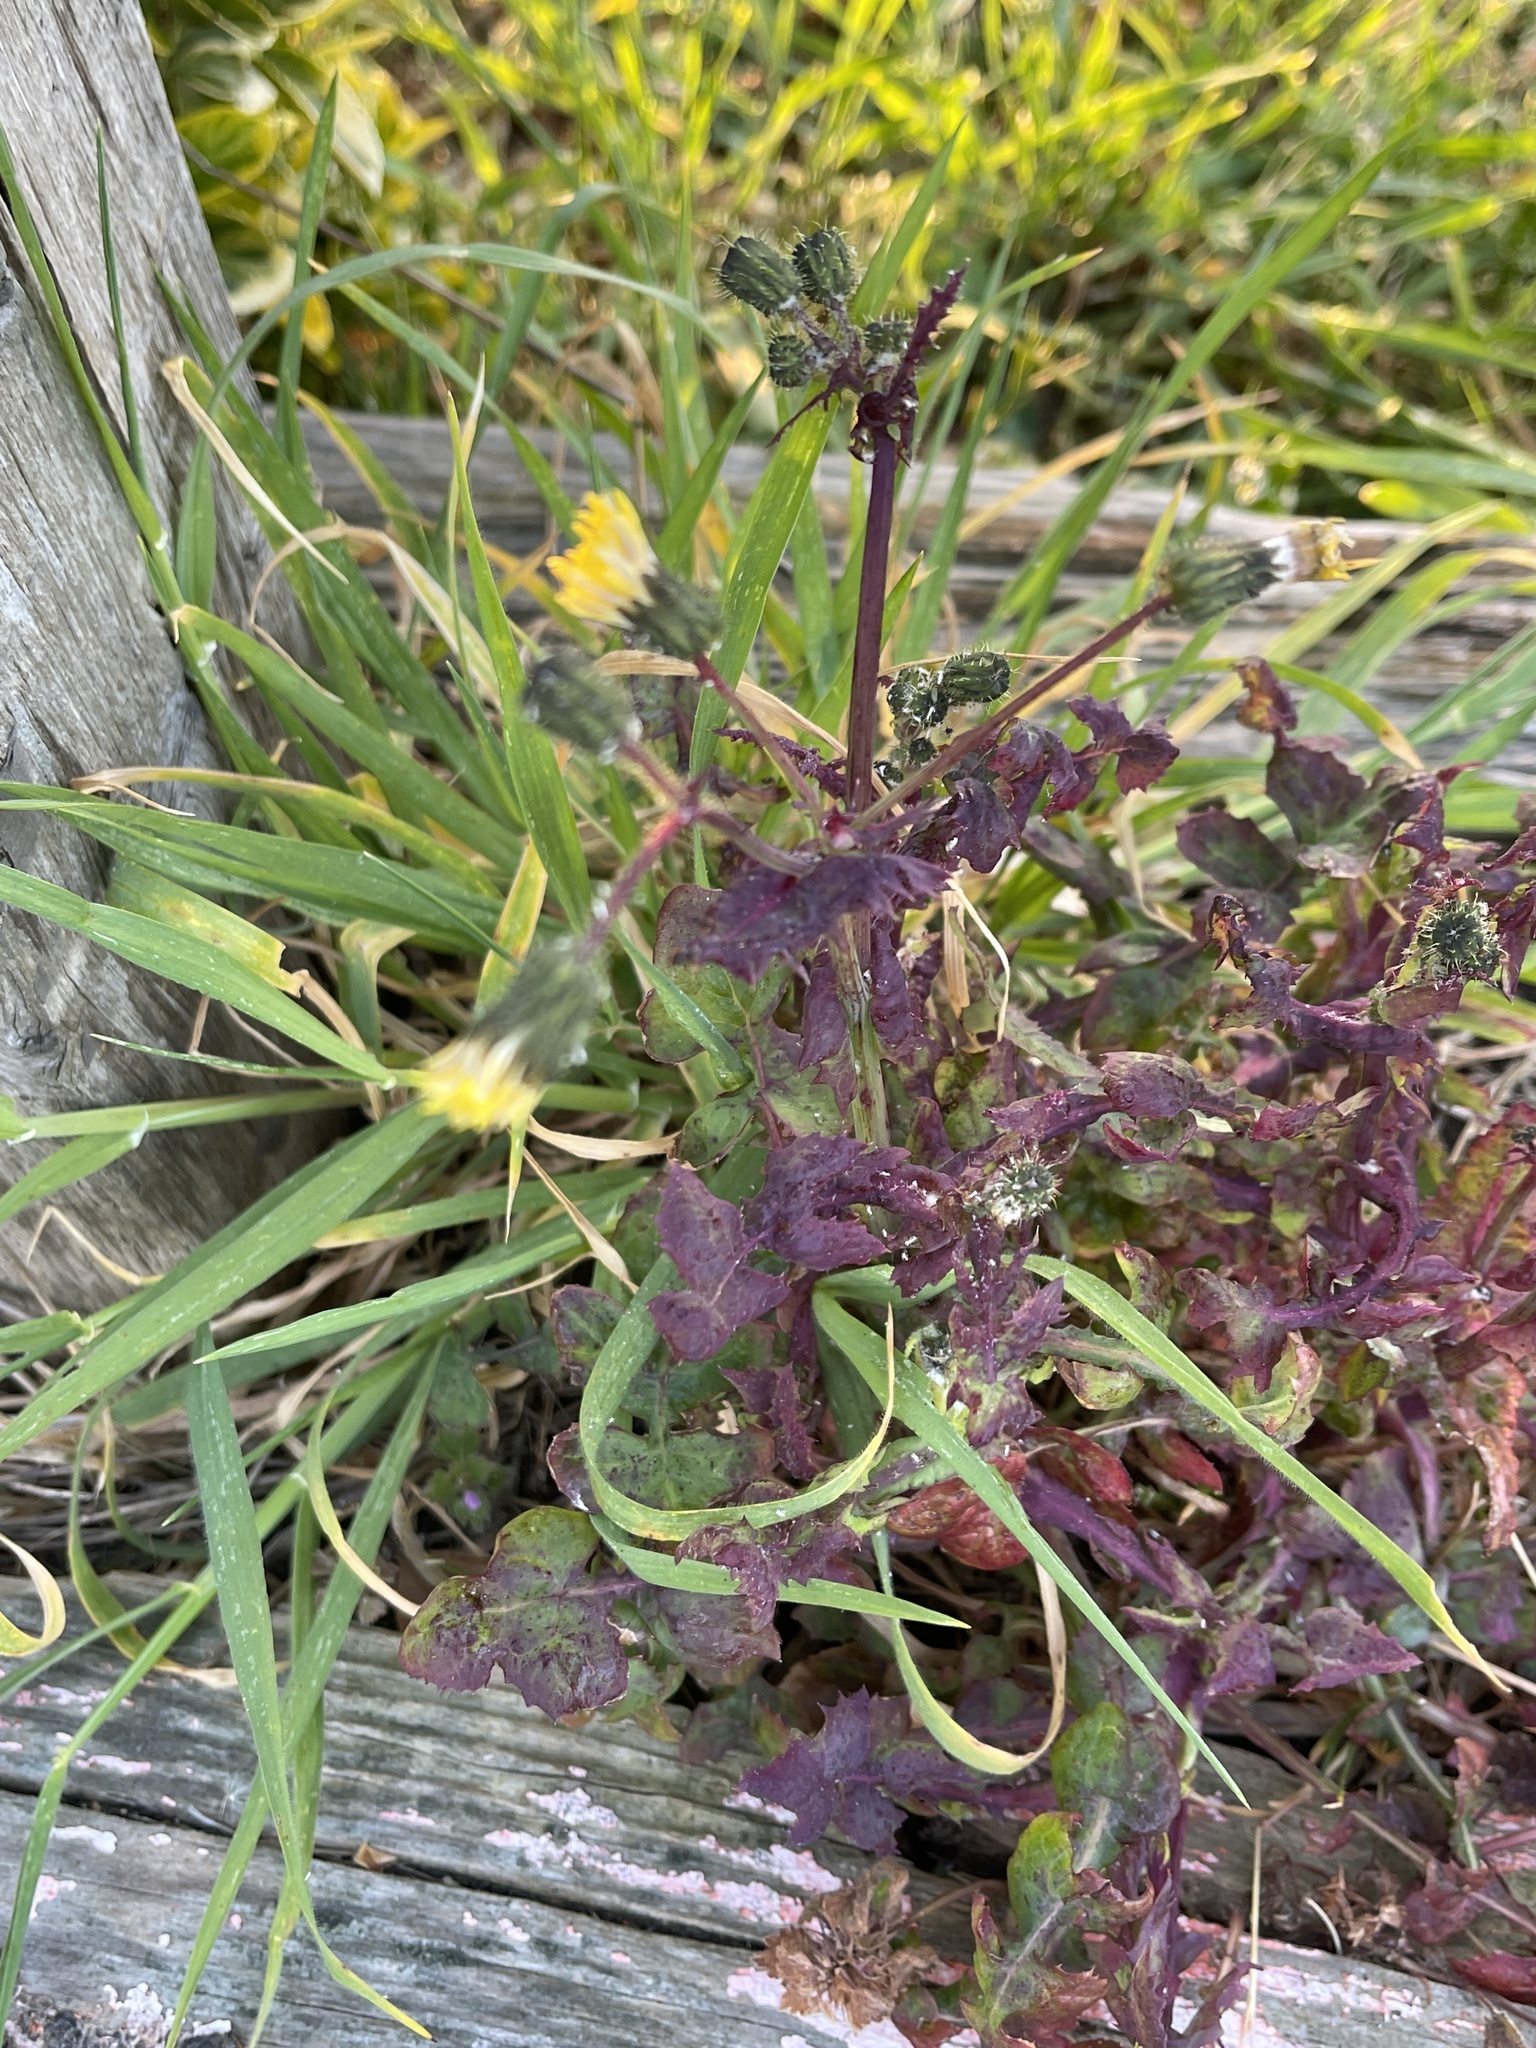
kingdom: Plantae
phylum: Tracheophyta
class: Magnoliopsida
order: Asterales
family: Asteraceae
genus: Sonchus
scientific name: Sonchus oleraceus
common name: Common sowthistle
